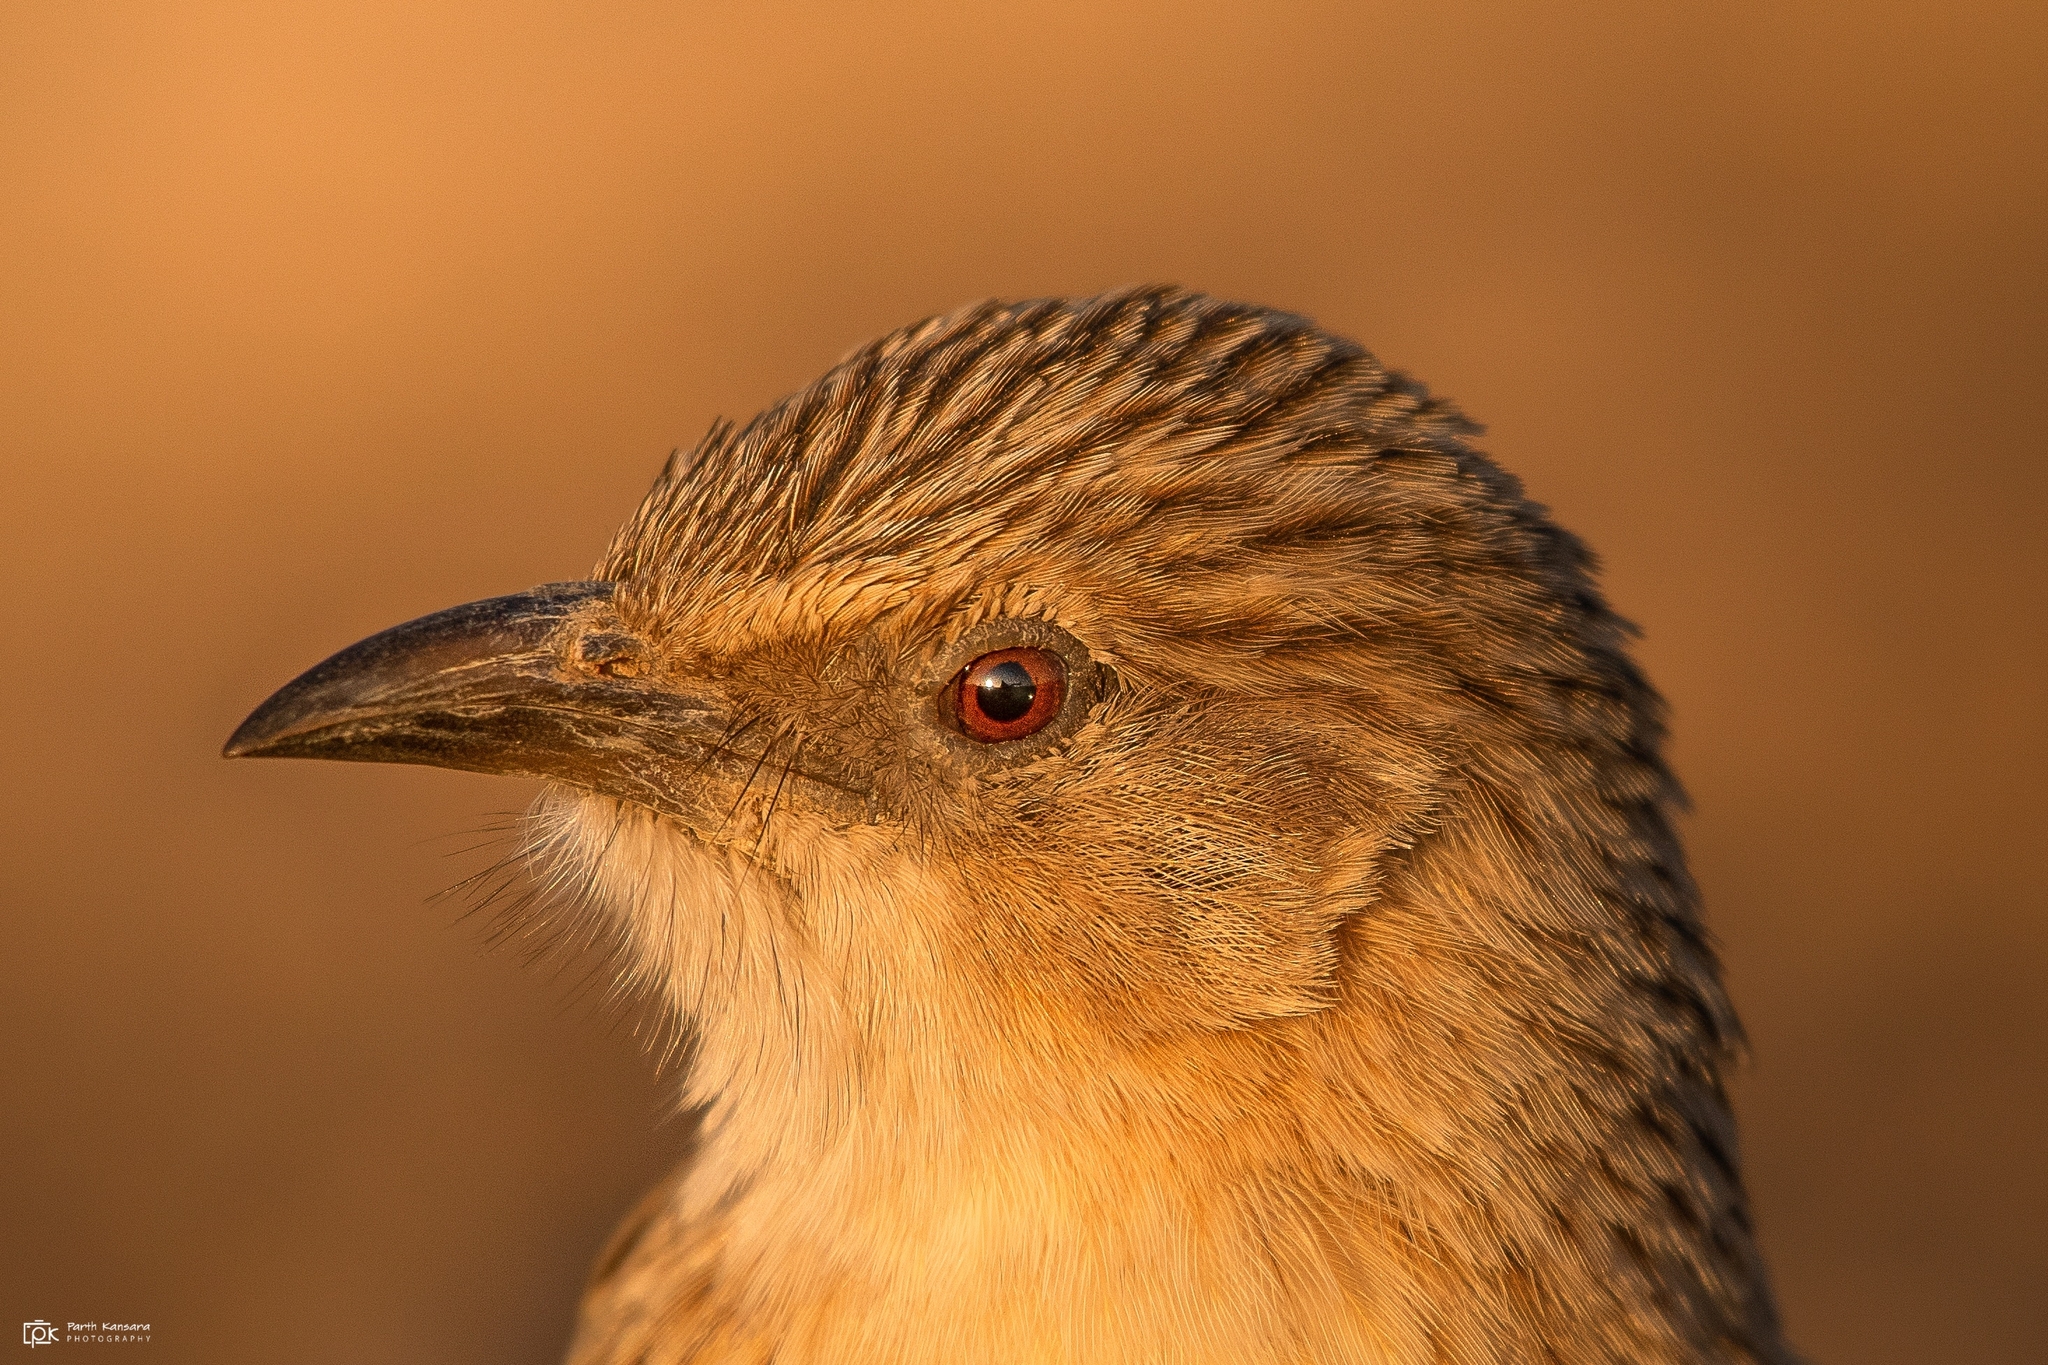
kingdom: Animalia
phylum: Chordata
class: Aves
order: Passeriformes
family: Leiothrichidae
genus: Turdoides
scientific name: Turdoides caudata
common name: Common babbler
